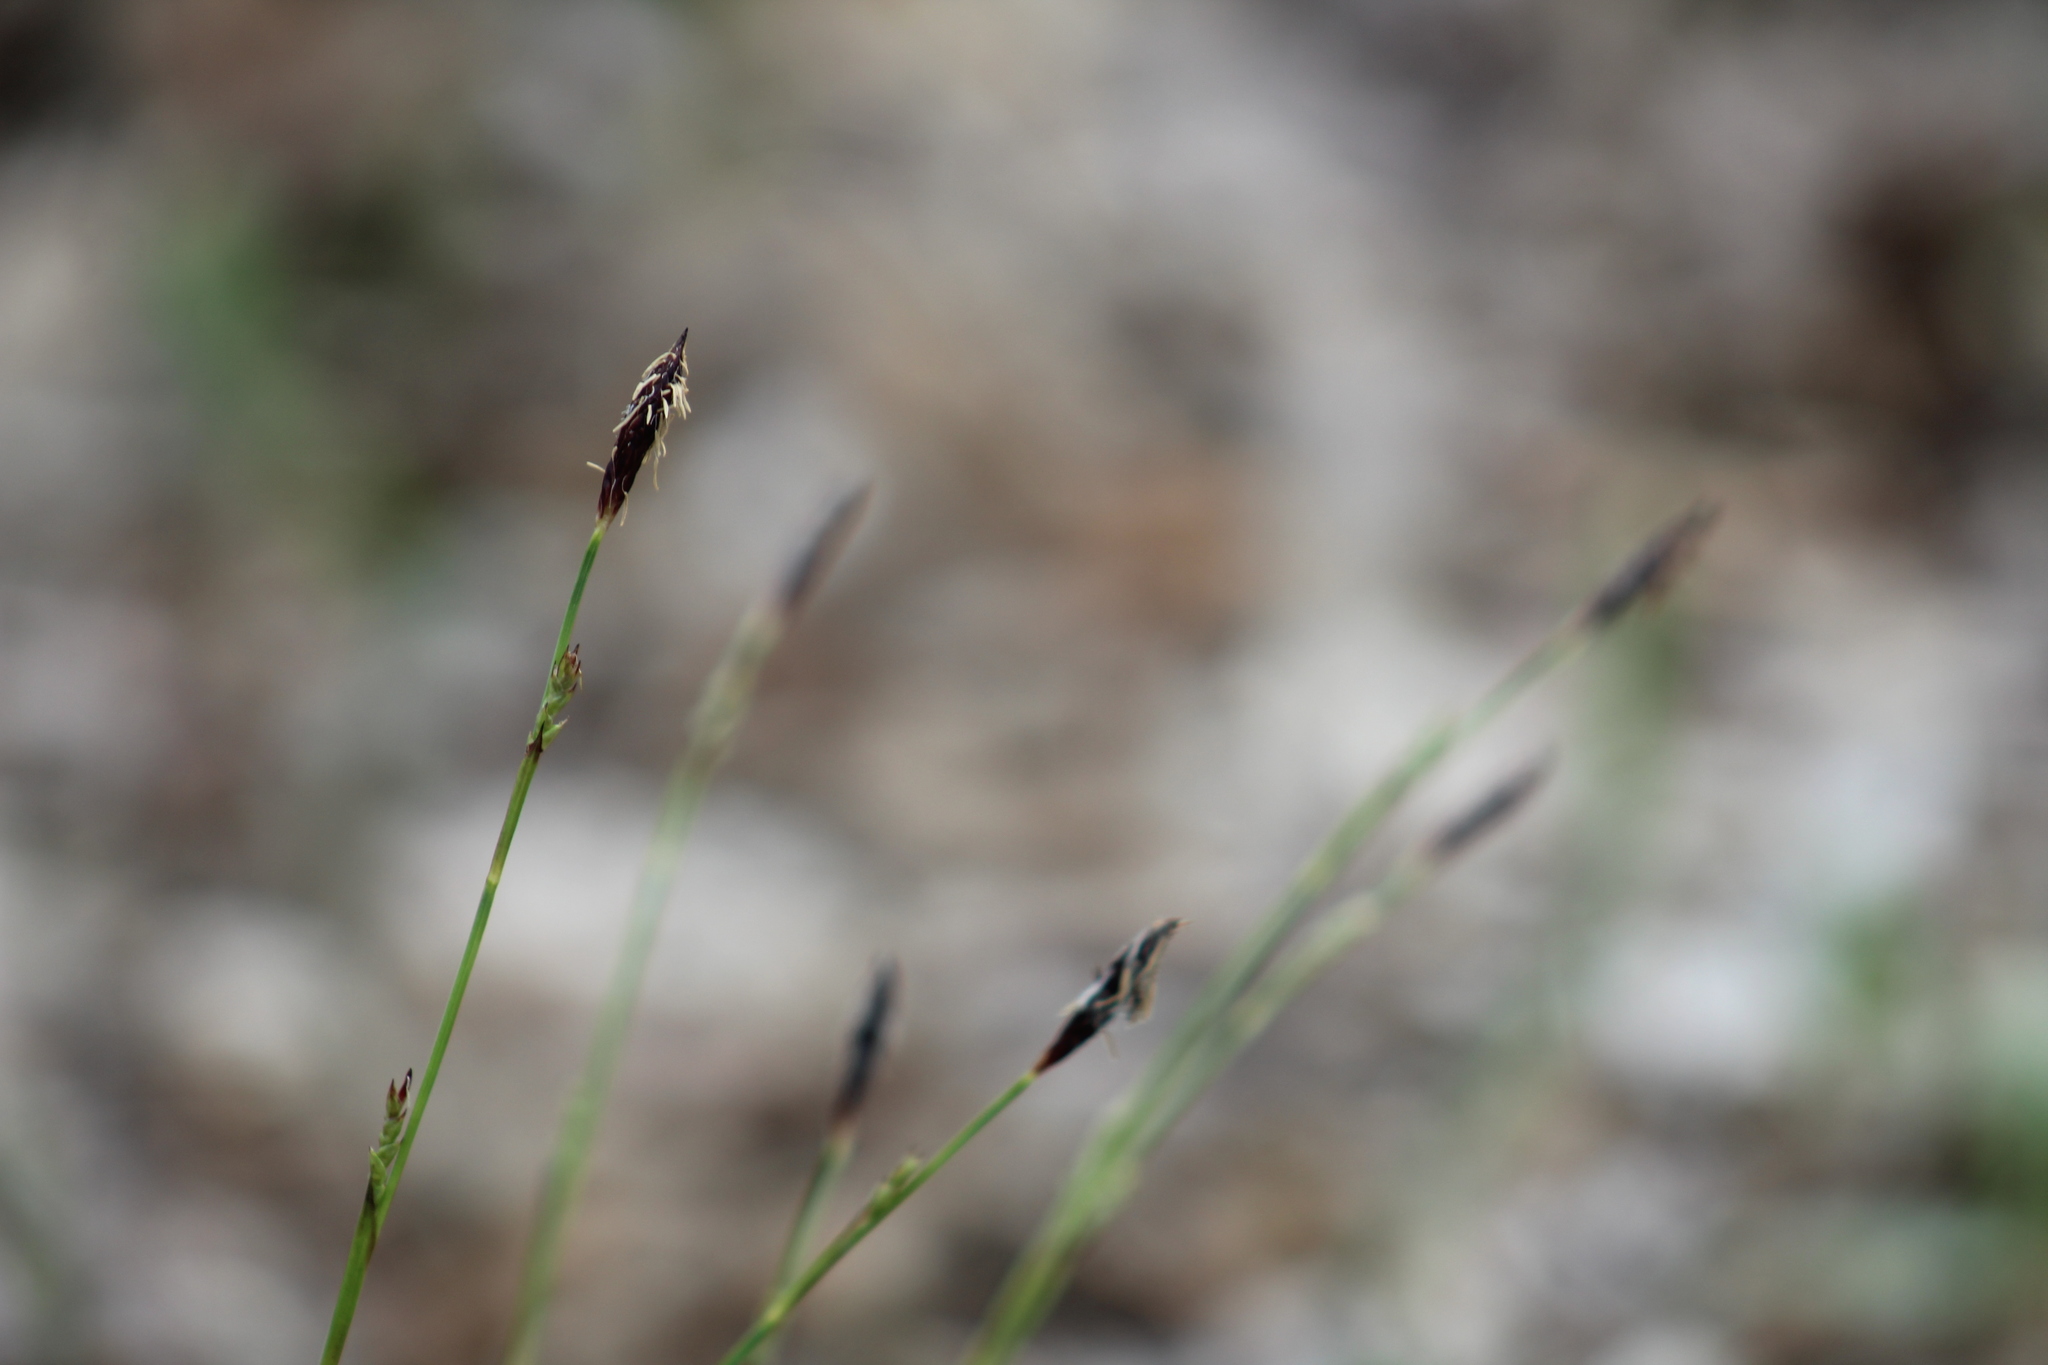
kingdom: Plantae
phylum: Tracheophyta
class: Liliopsida
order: Poales
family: Cyperaceae
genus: Carex
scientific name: Carex plantaginea
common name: Plantain-leaved sedge
